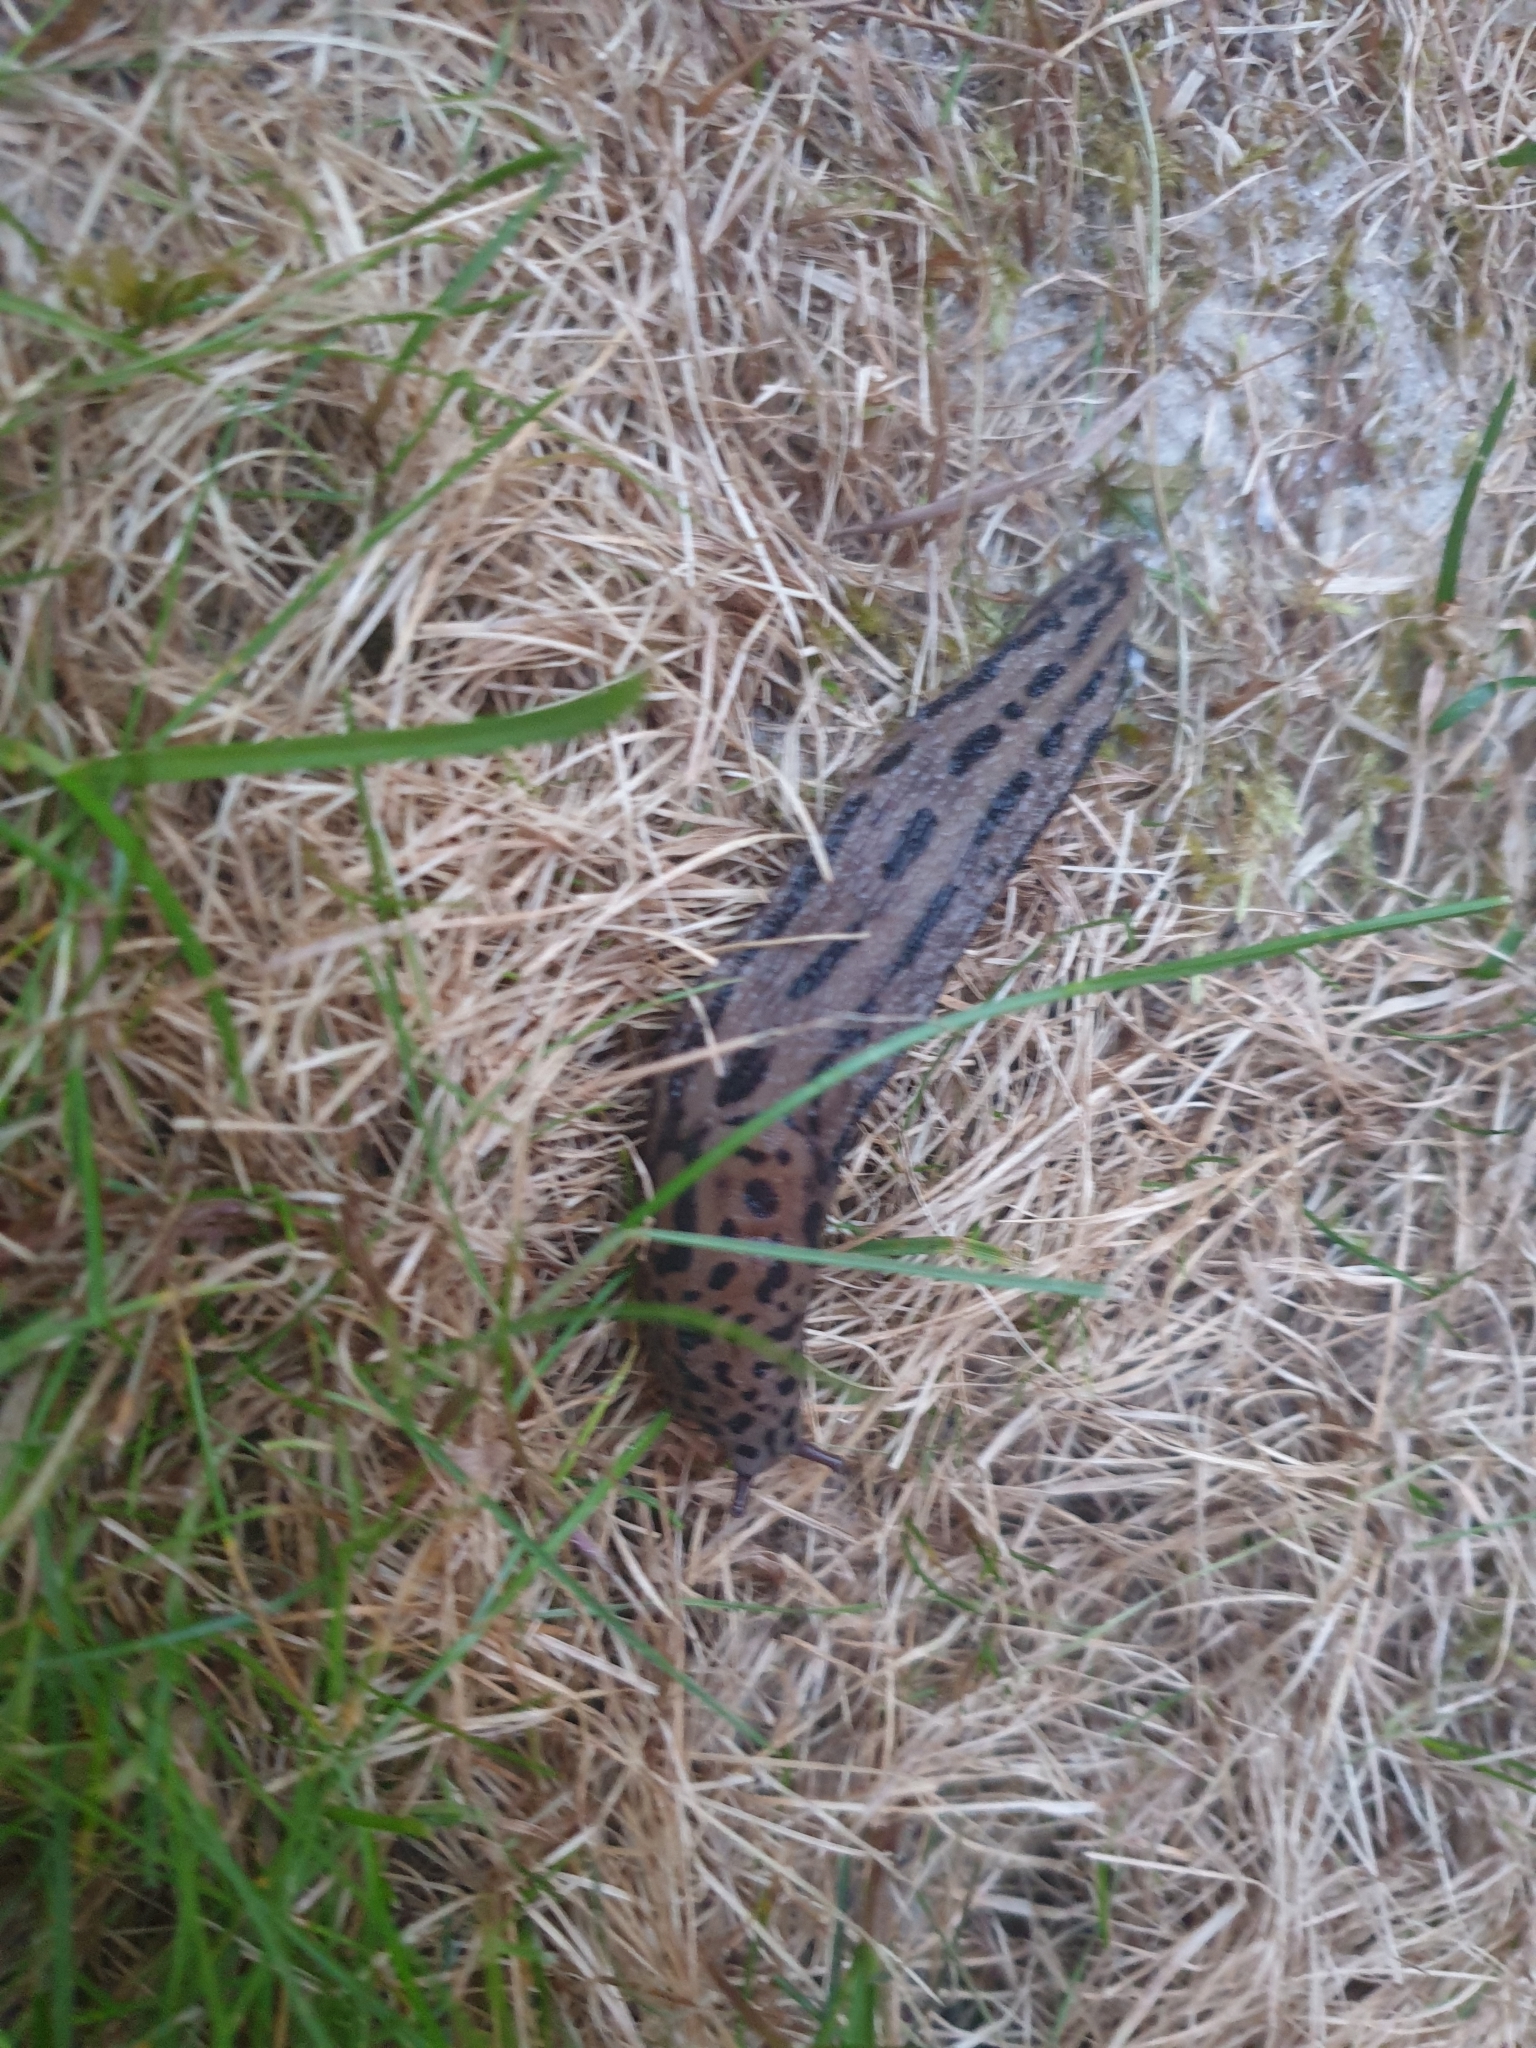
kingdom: Animalia
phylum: Mollusca
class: Gastropoda
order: Stylommatophora
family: Limacidae
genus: Limax
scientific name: Limax maximus
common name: Great grey slug
